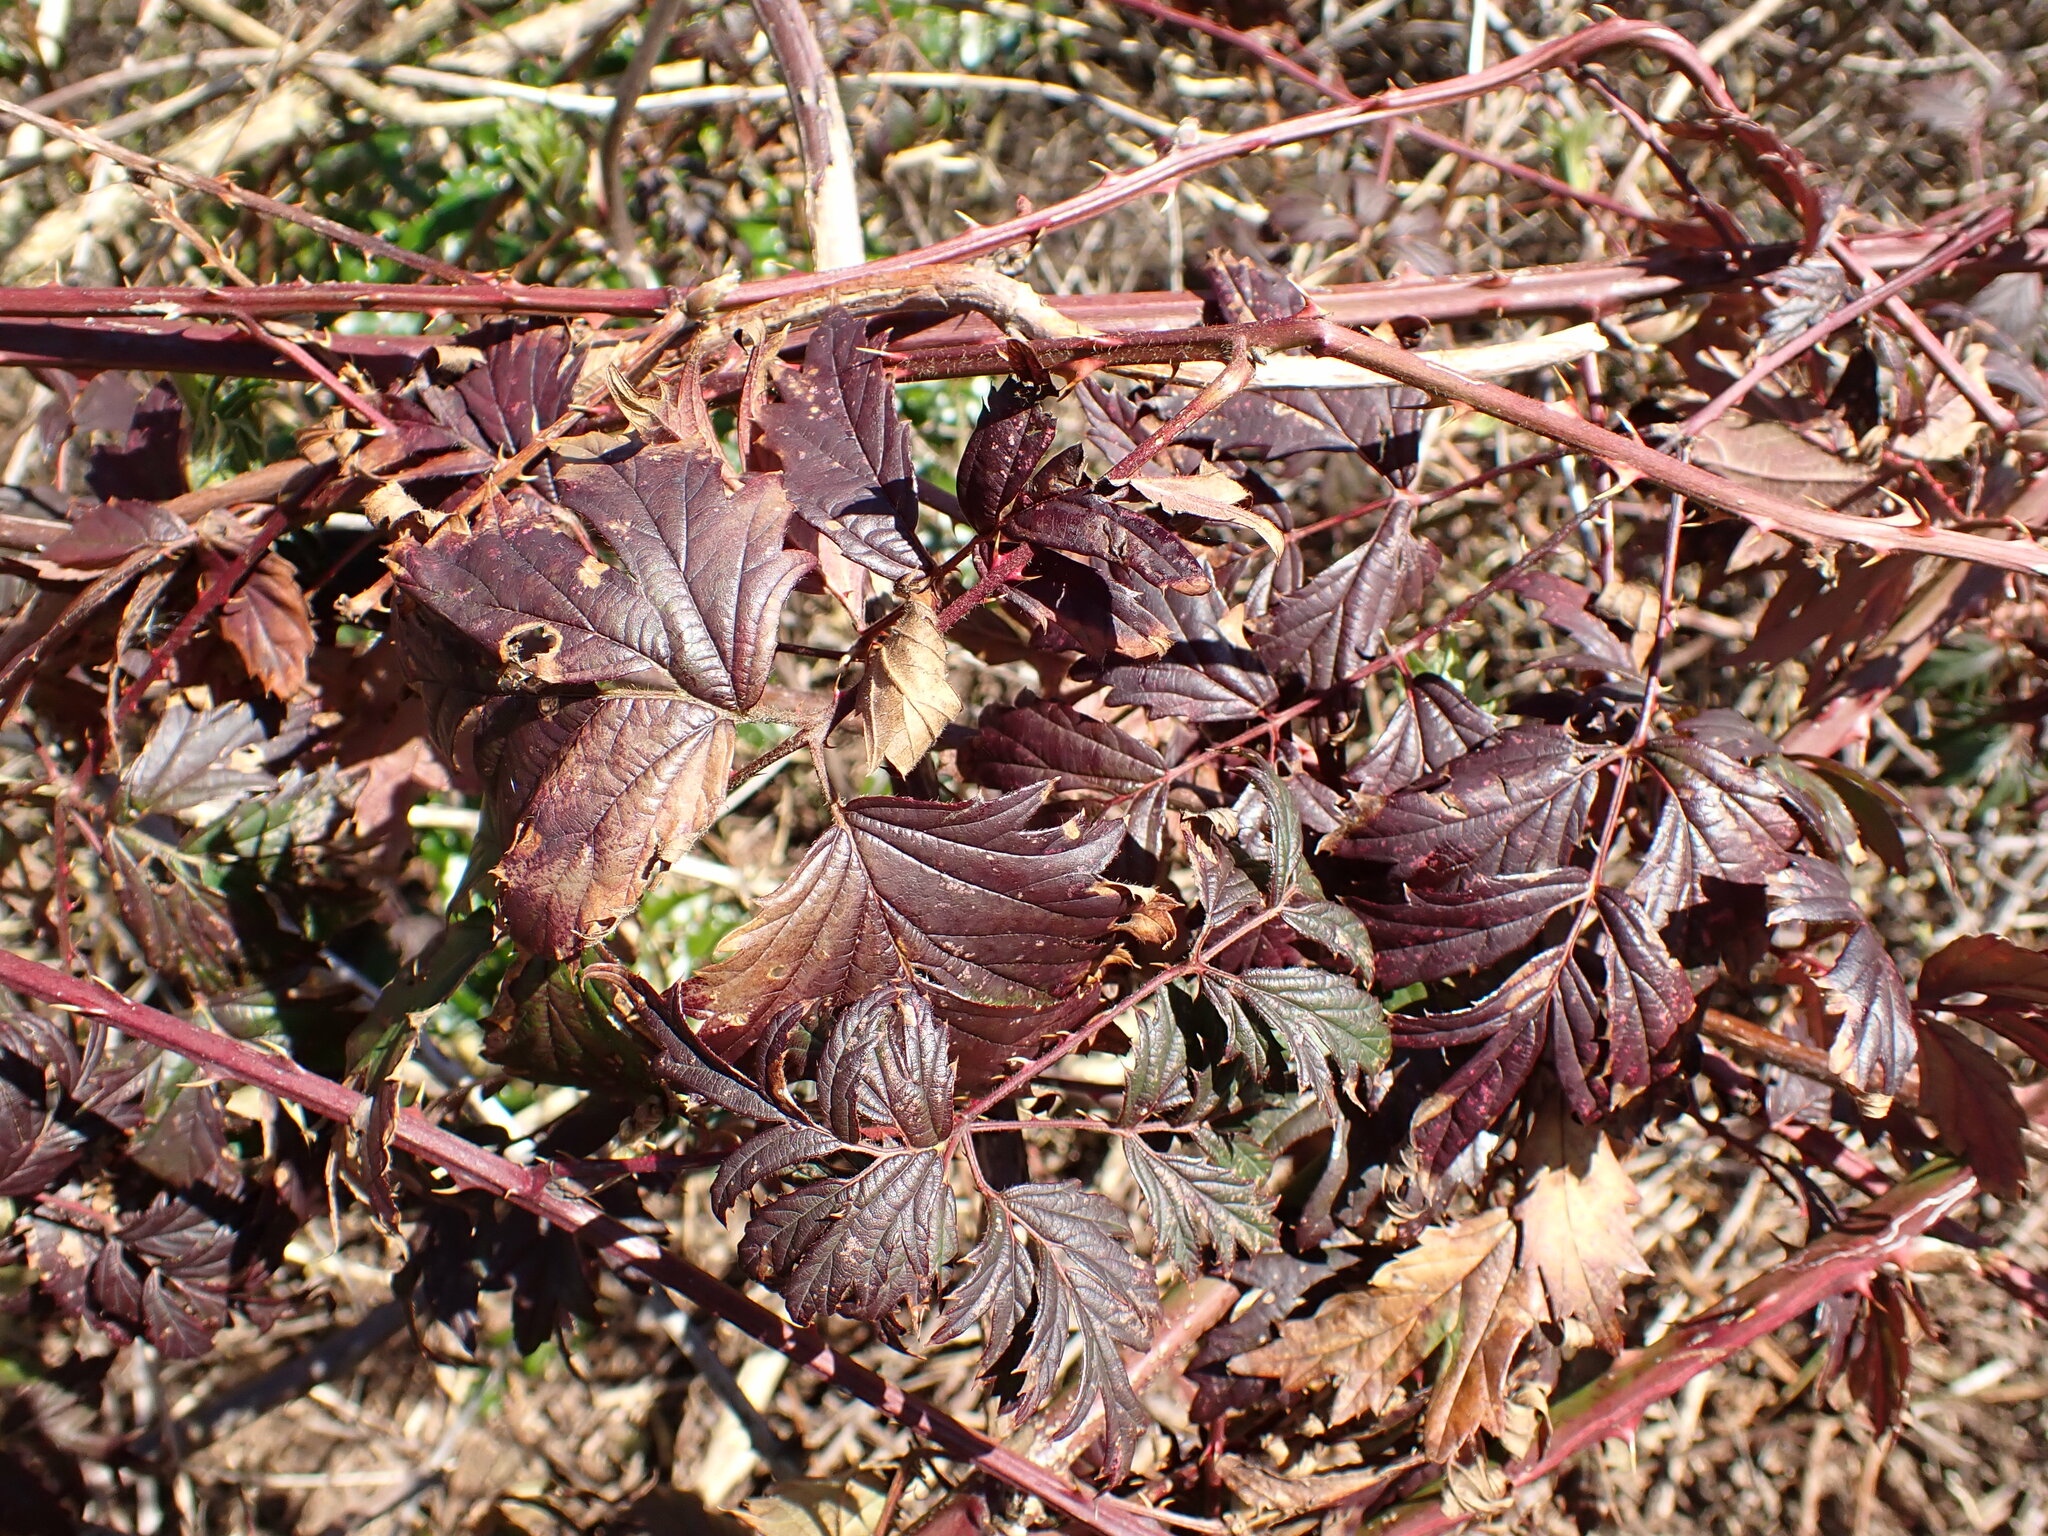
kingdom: Plantae
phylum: Tracheophyta
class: Magnoliopsida
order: Rosales
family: Rosaceae
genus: Rubus
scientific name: Rubus laciniatus
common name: Evergreen blackberry
